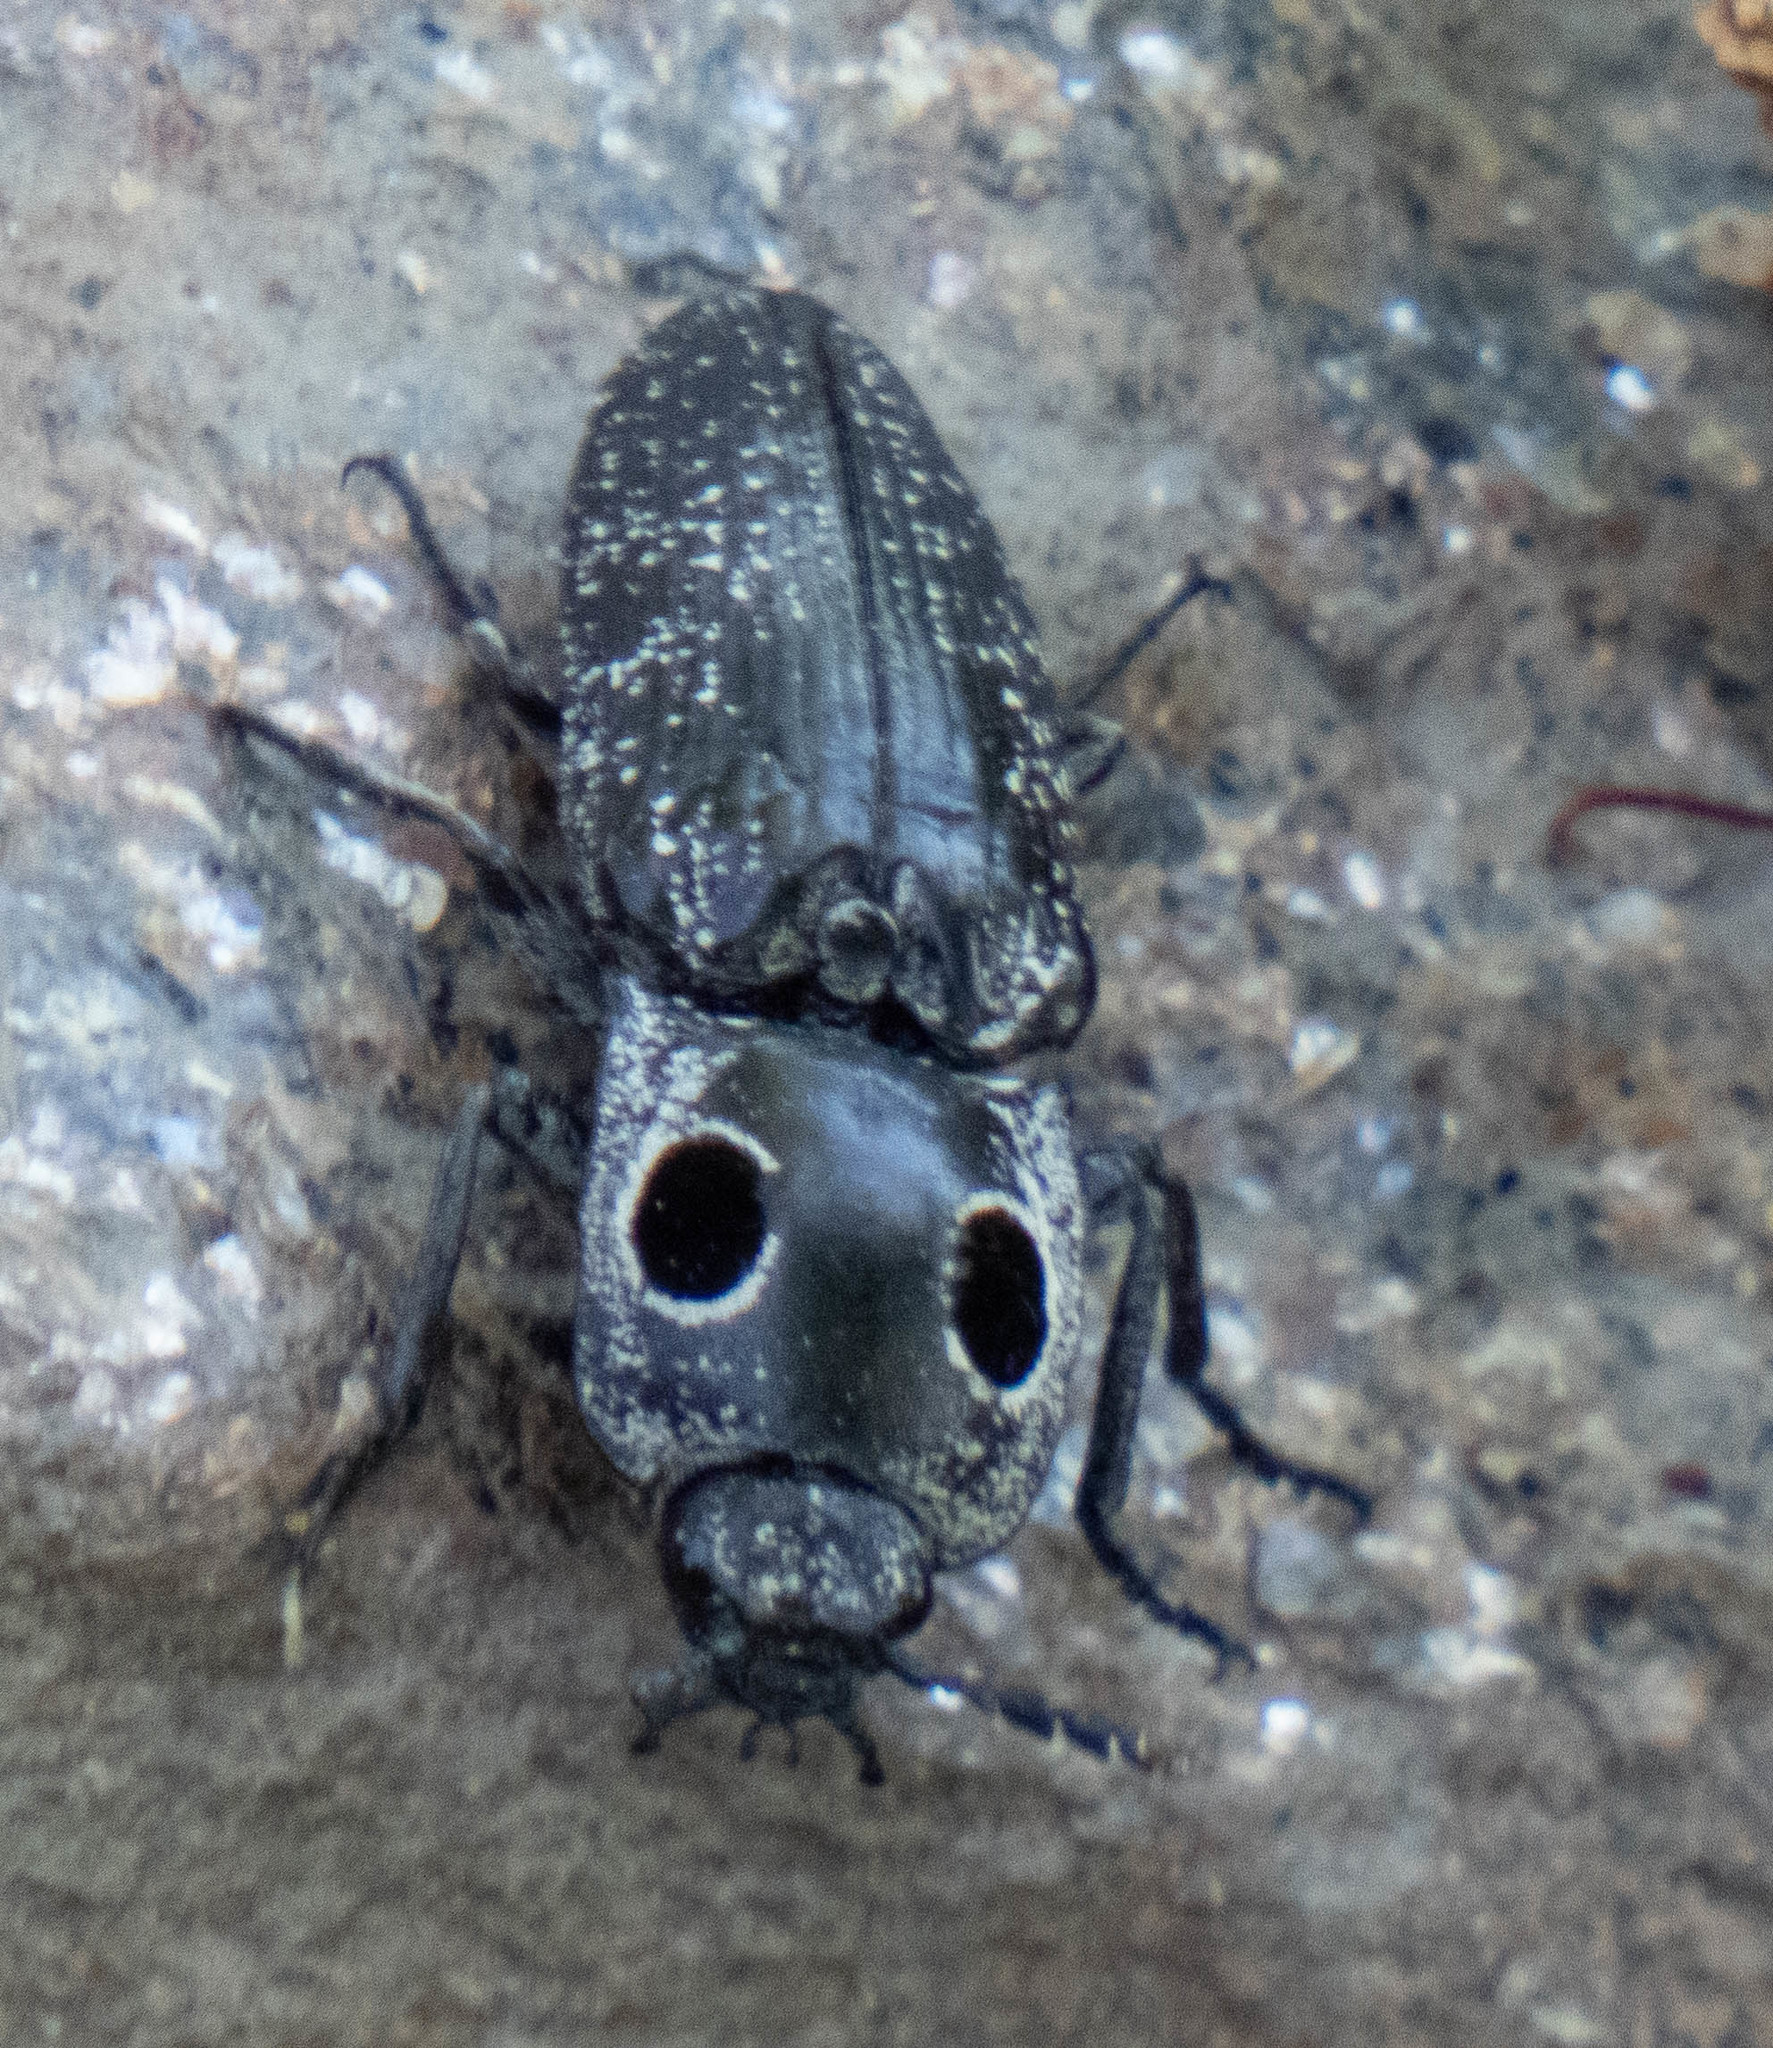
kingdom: Animalia
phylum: Arthropoda
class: Insecta
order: Coleoptera
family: Elateridae
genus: Alaus
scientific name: Alaus oculatus
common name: Eastern eyed click beetle
